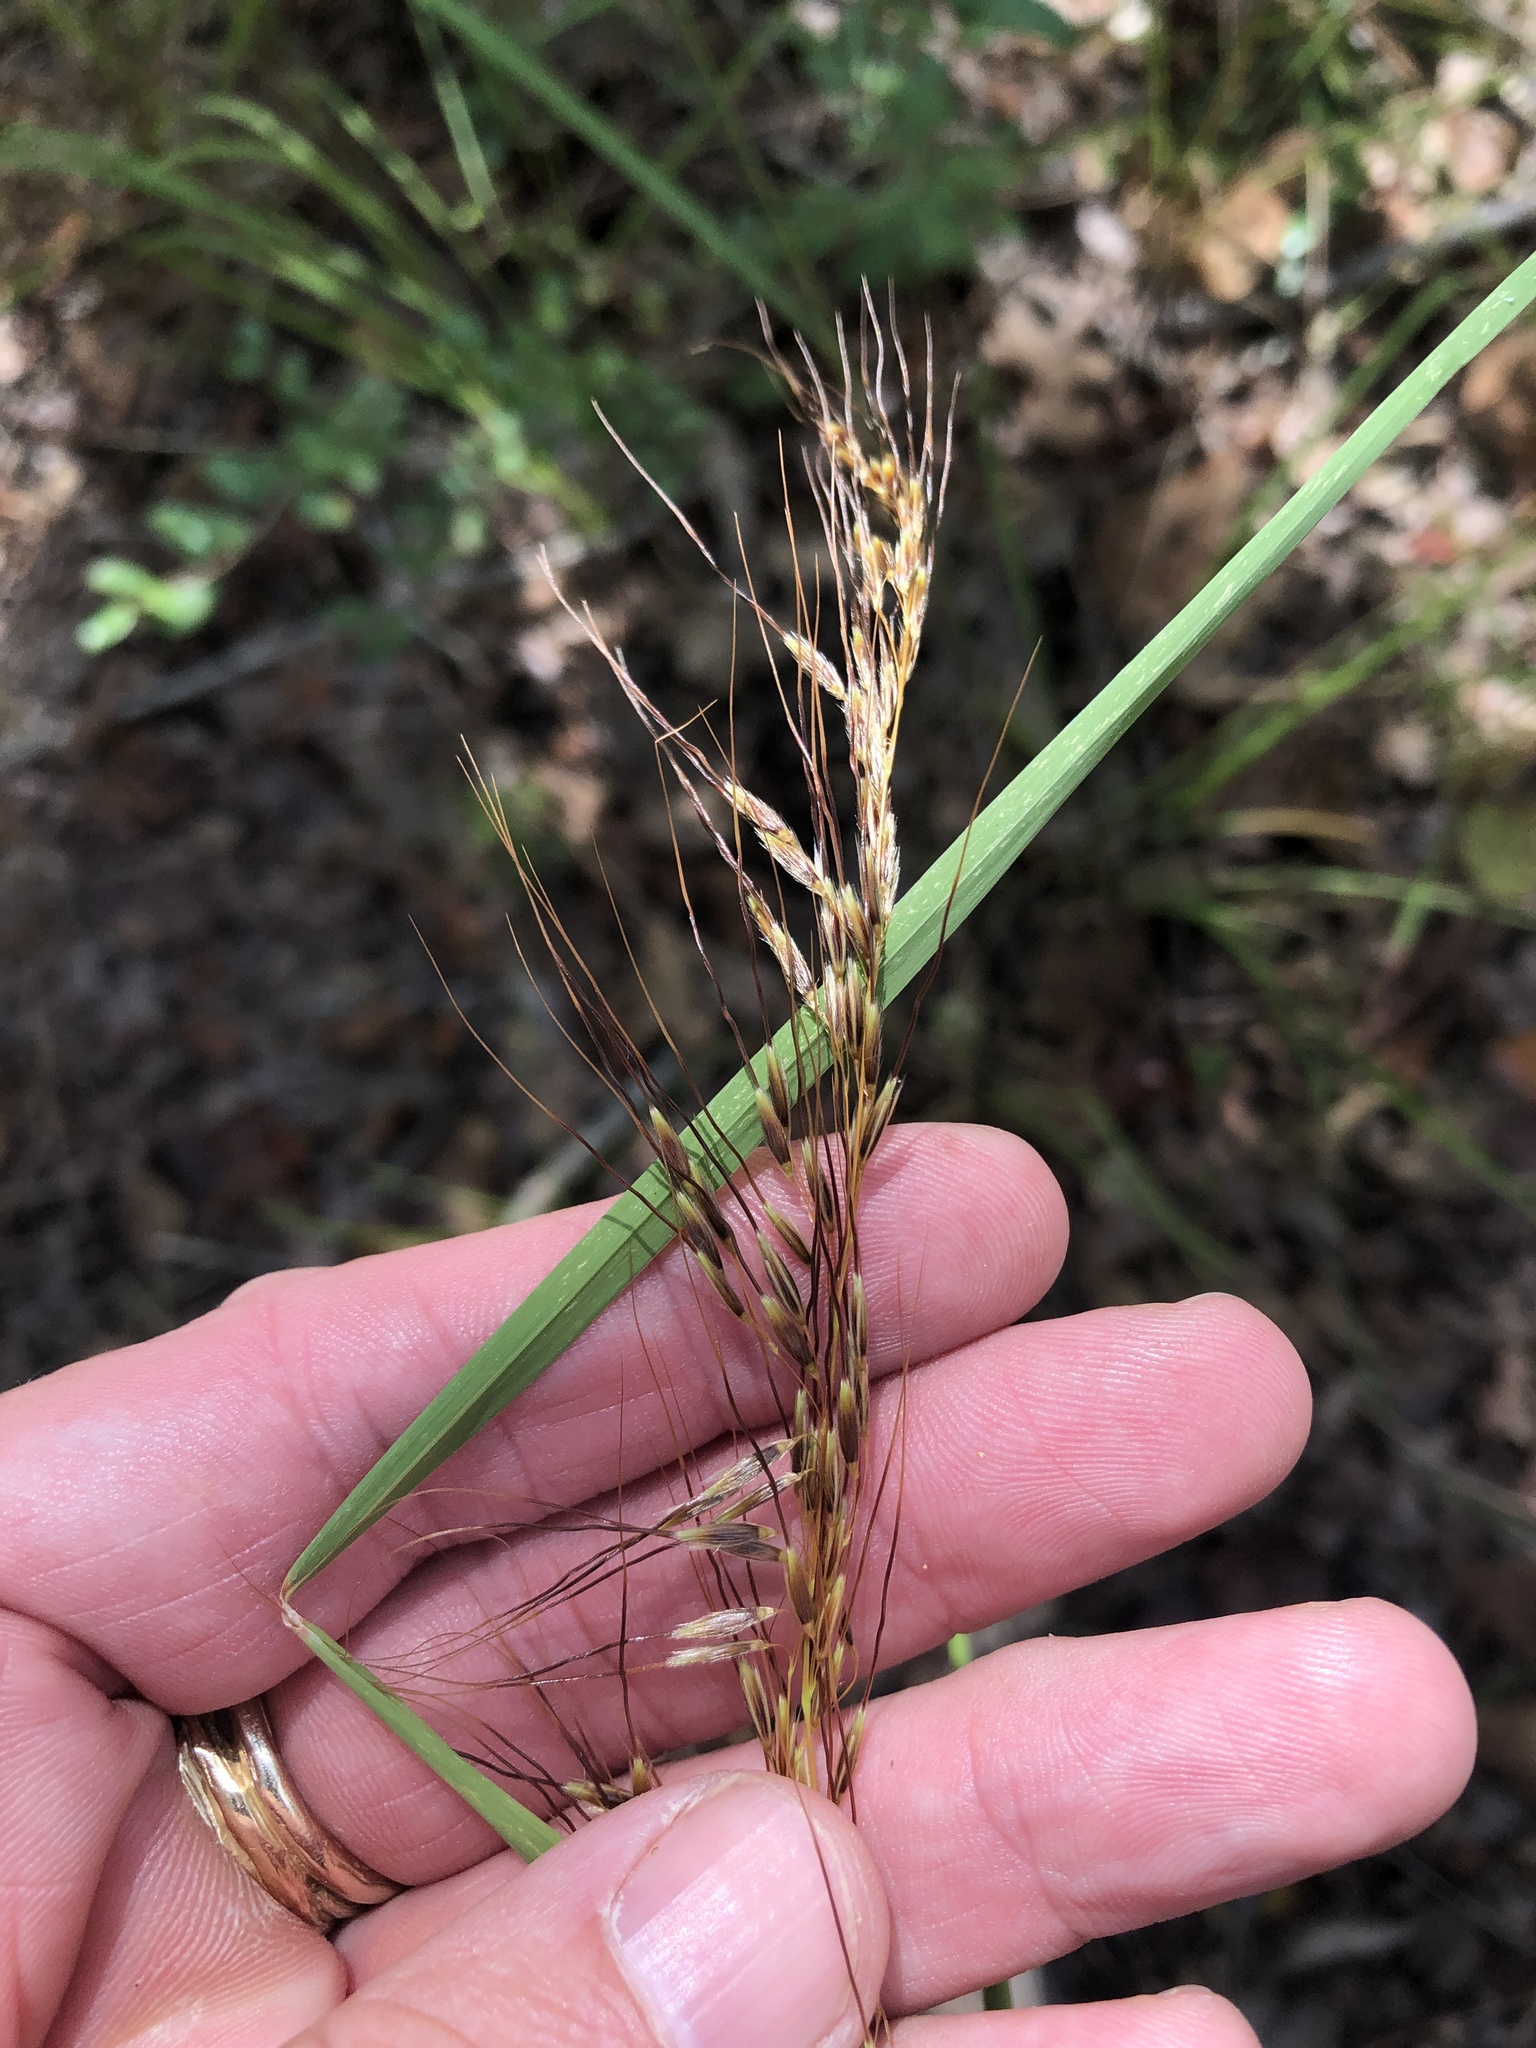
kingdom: Plantae
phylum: Tracheophyta
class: Liliopsida
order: Poales
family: Poaceae
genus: Sorghastrum
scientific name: Sorghastrum elliottii
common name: Slender indian grass
